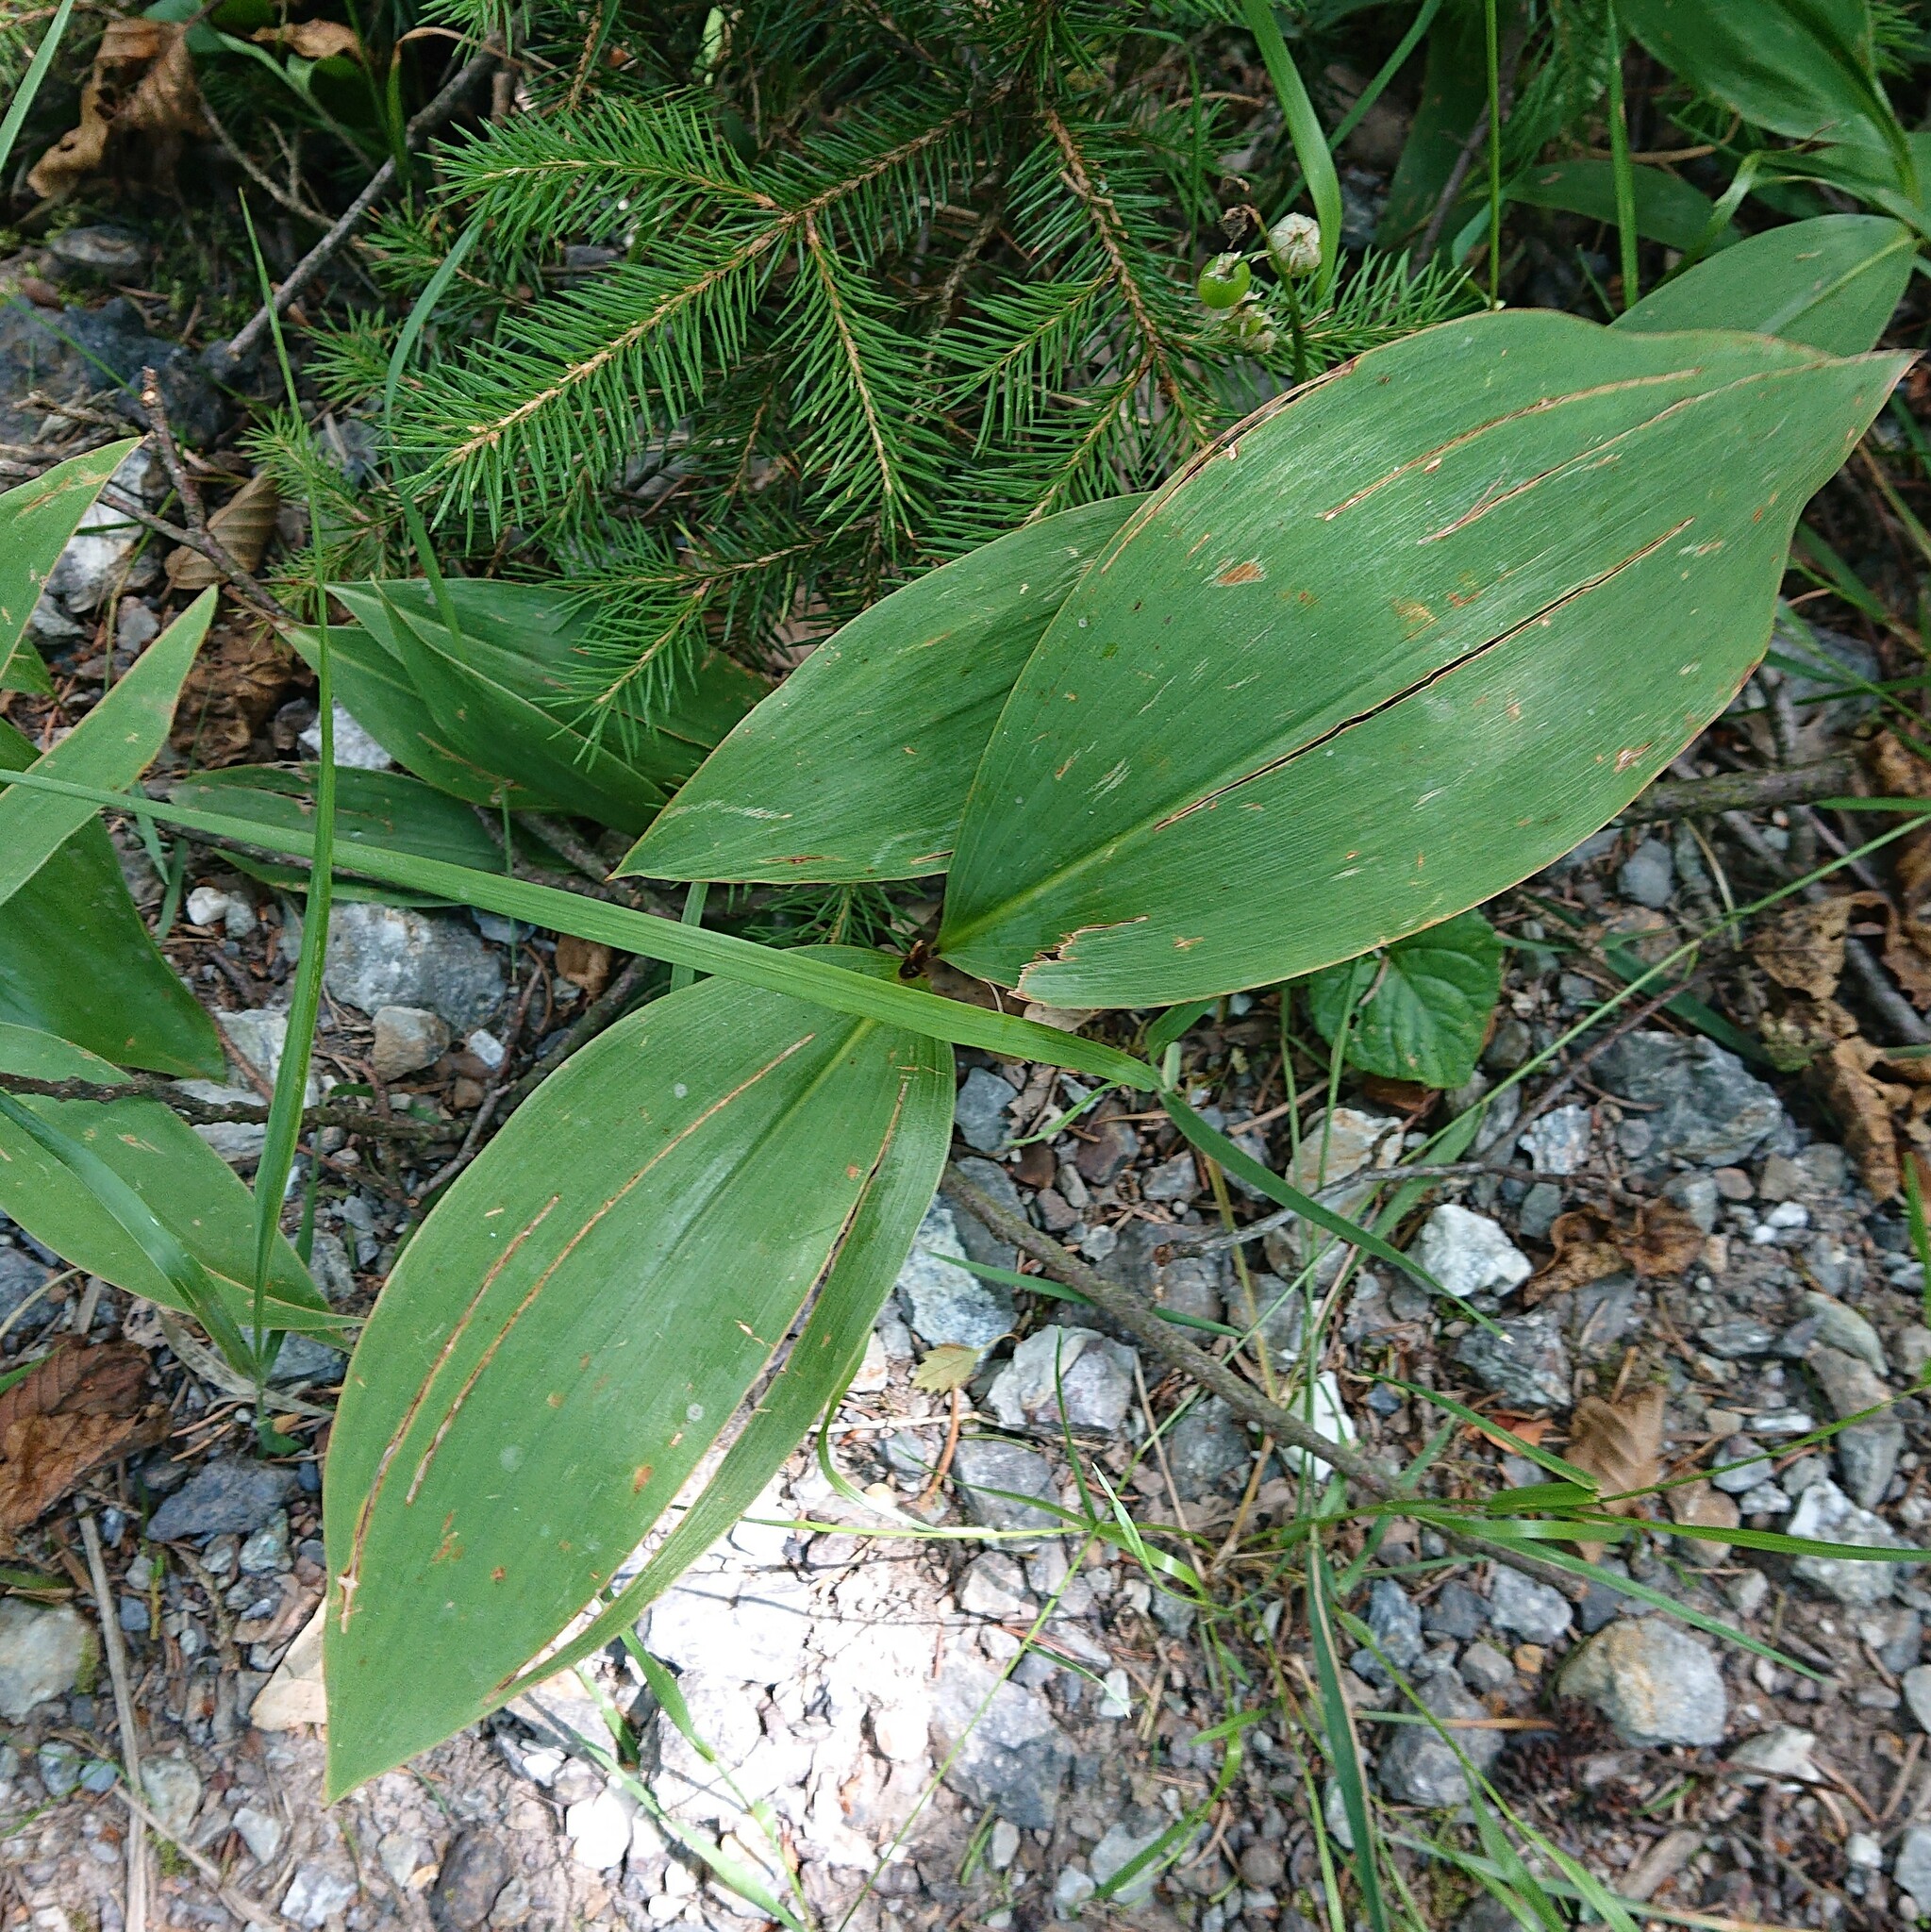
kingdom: Plantae
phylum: Tracheophyta
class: Liliopsida
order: Asparagales
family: Asparagaceae
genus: Convallaria
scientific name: Convallaria majalis
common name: Lily-of-the-valley
